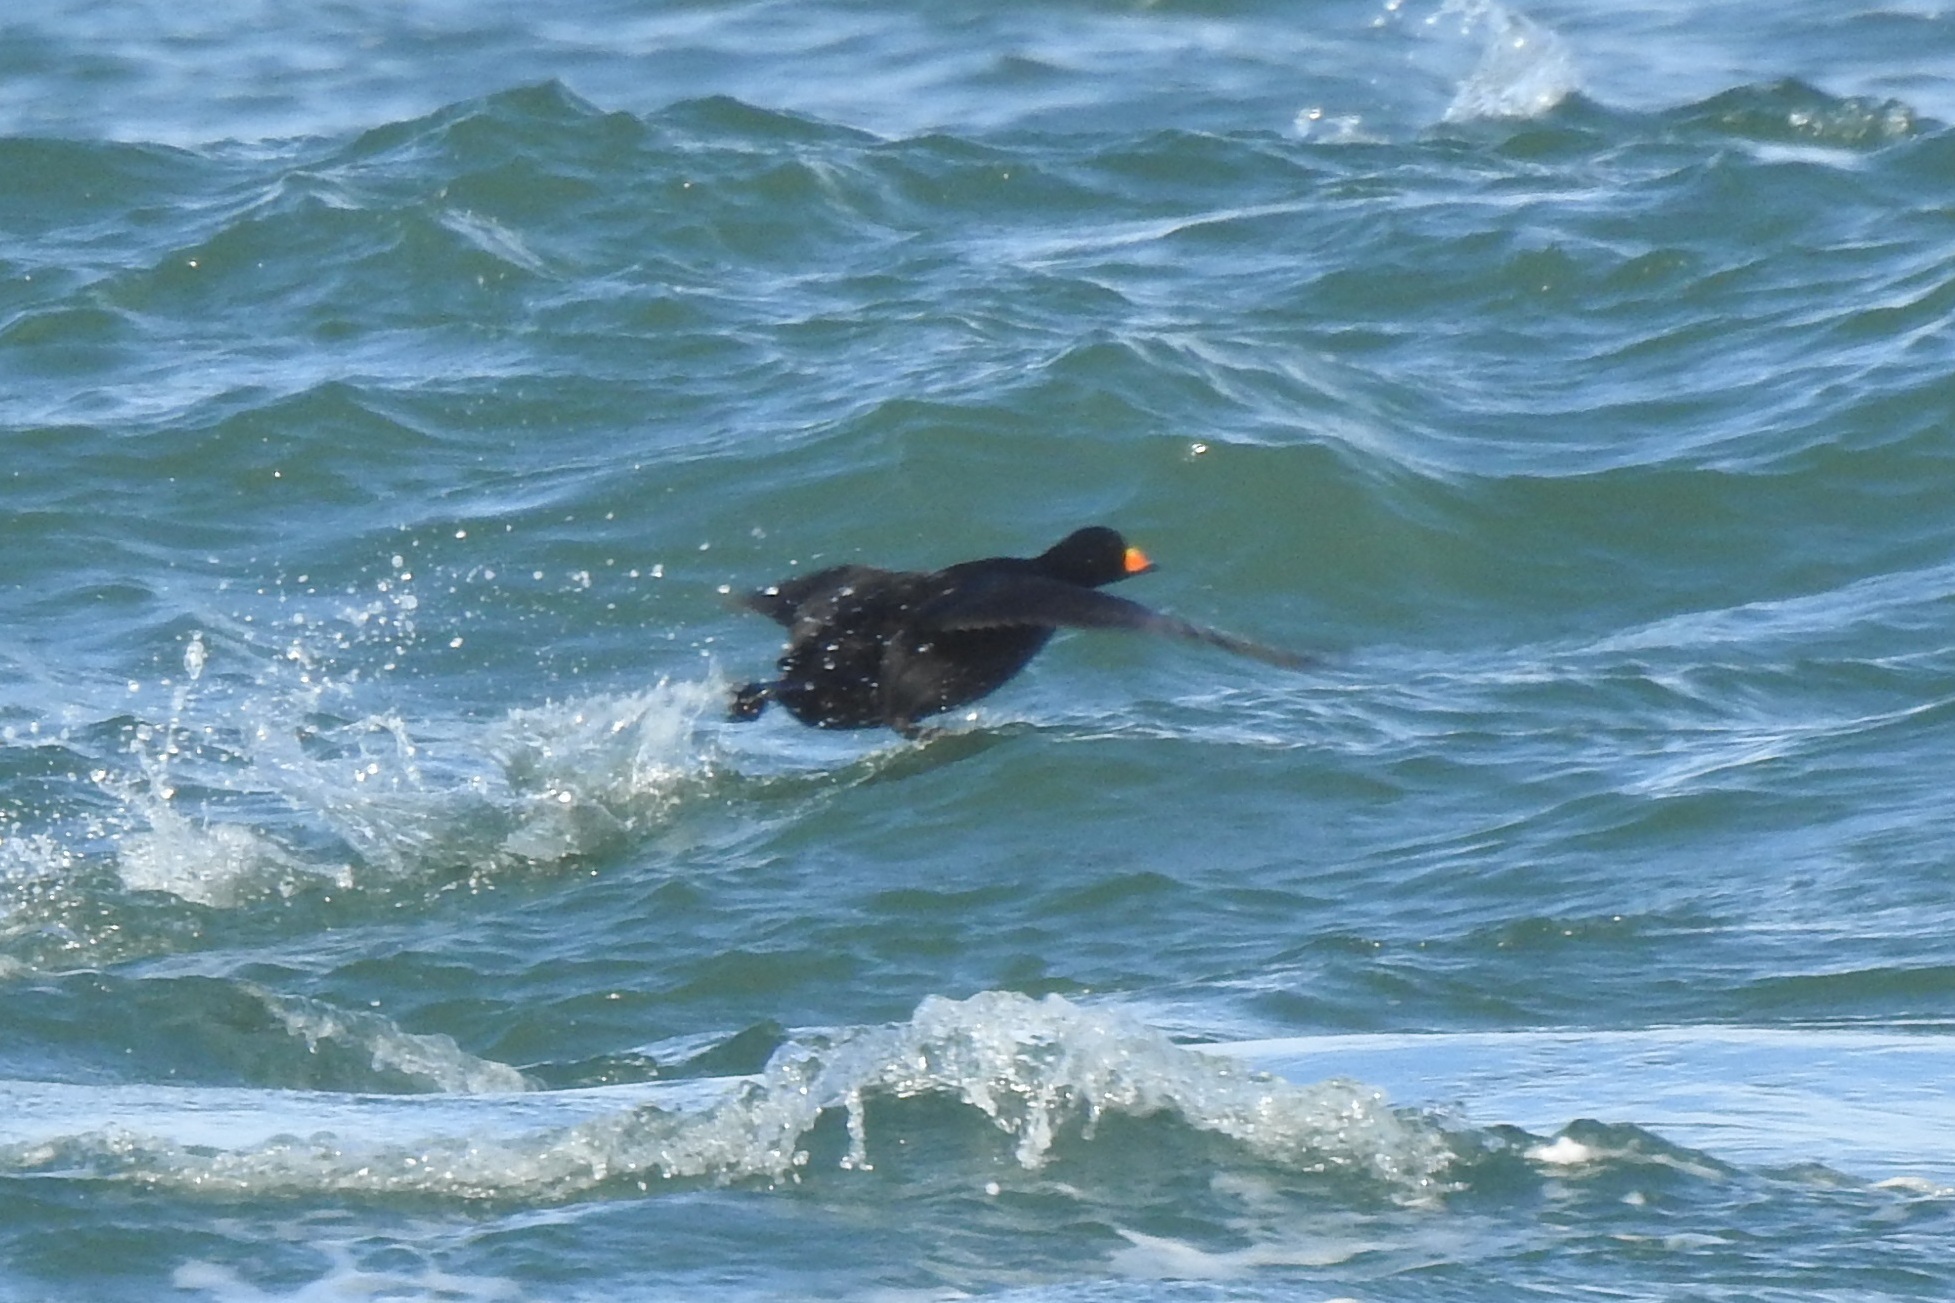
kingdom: Animalia
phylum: Chordata
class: Aves
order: Anseriformes
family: Anatidae
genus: Melanitta
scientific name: Melanitta americana
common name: Black scoter
